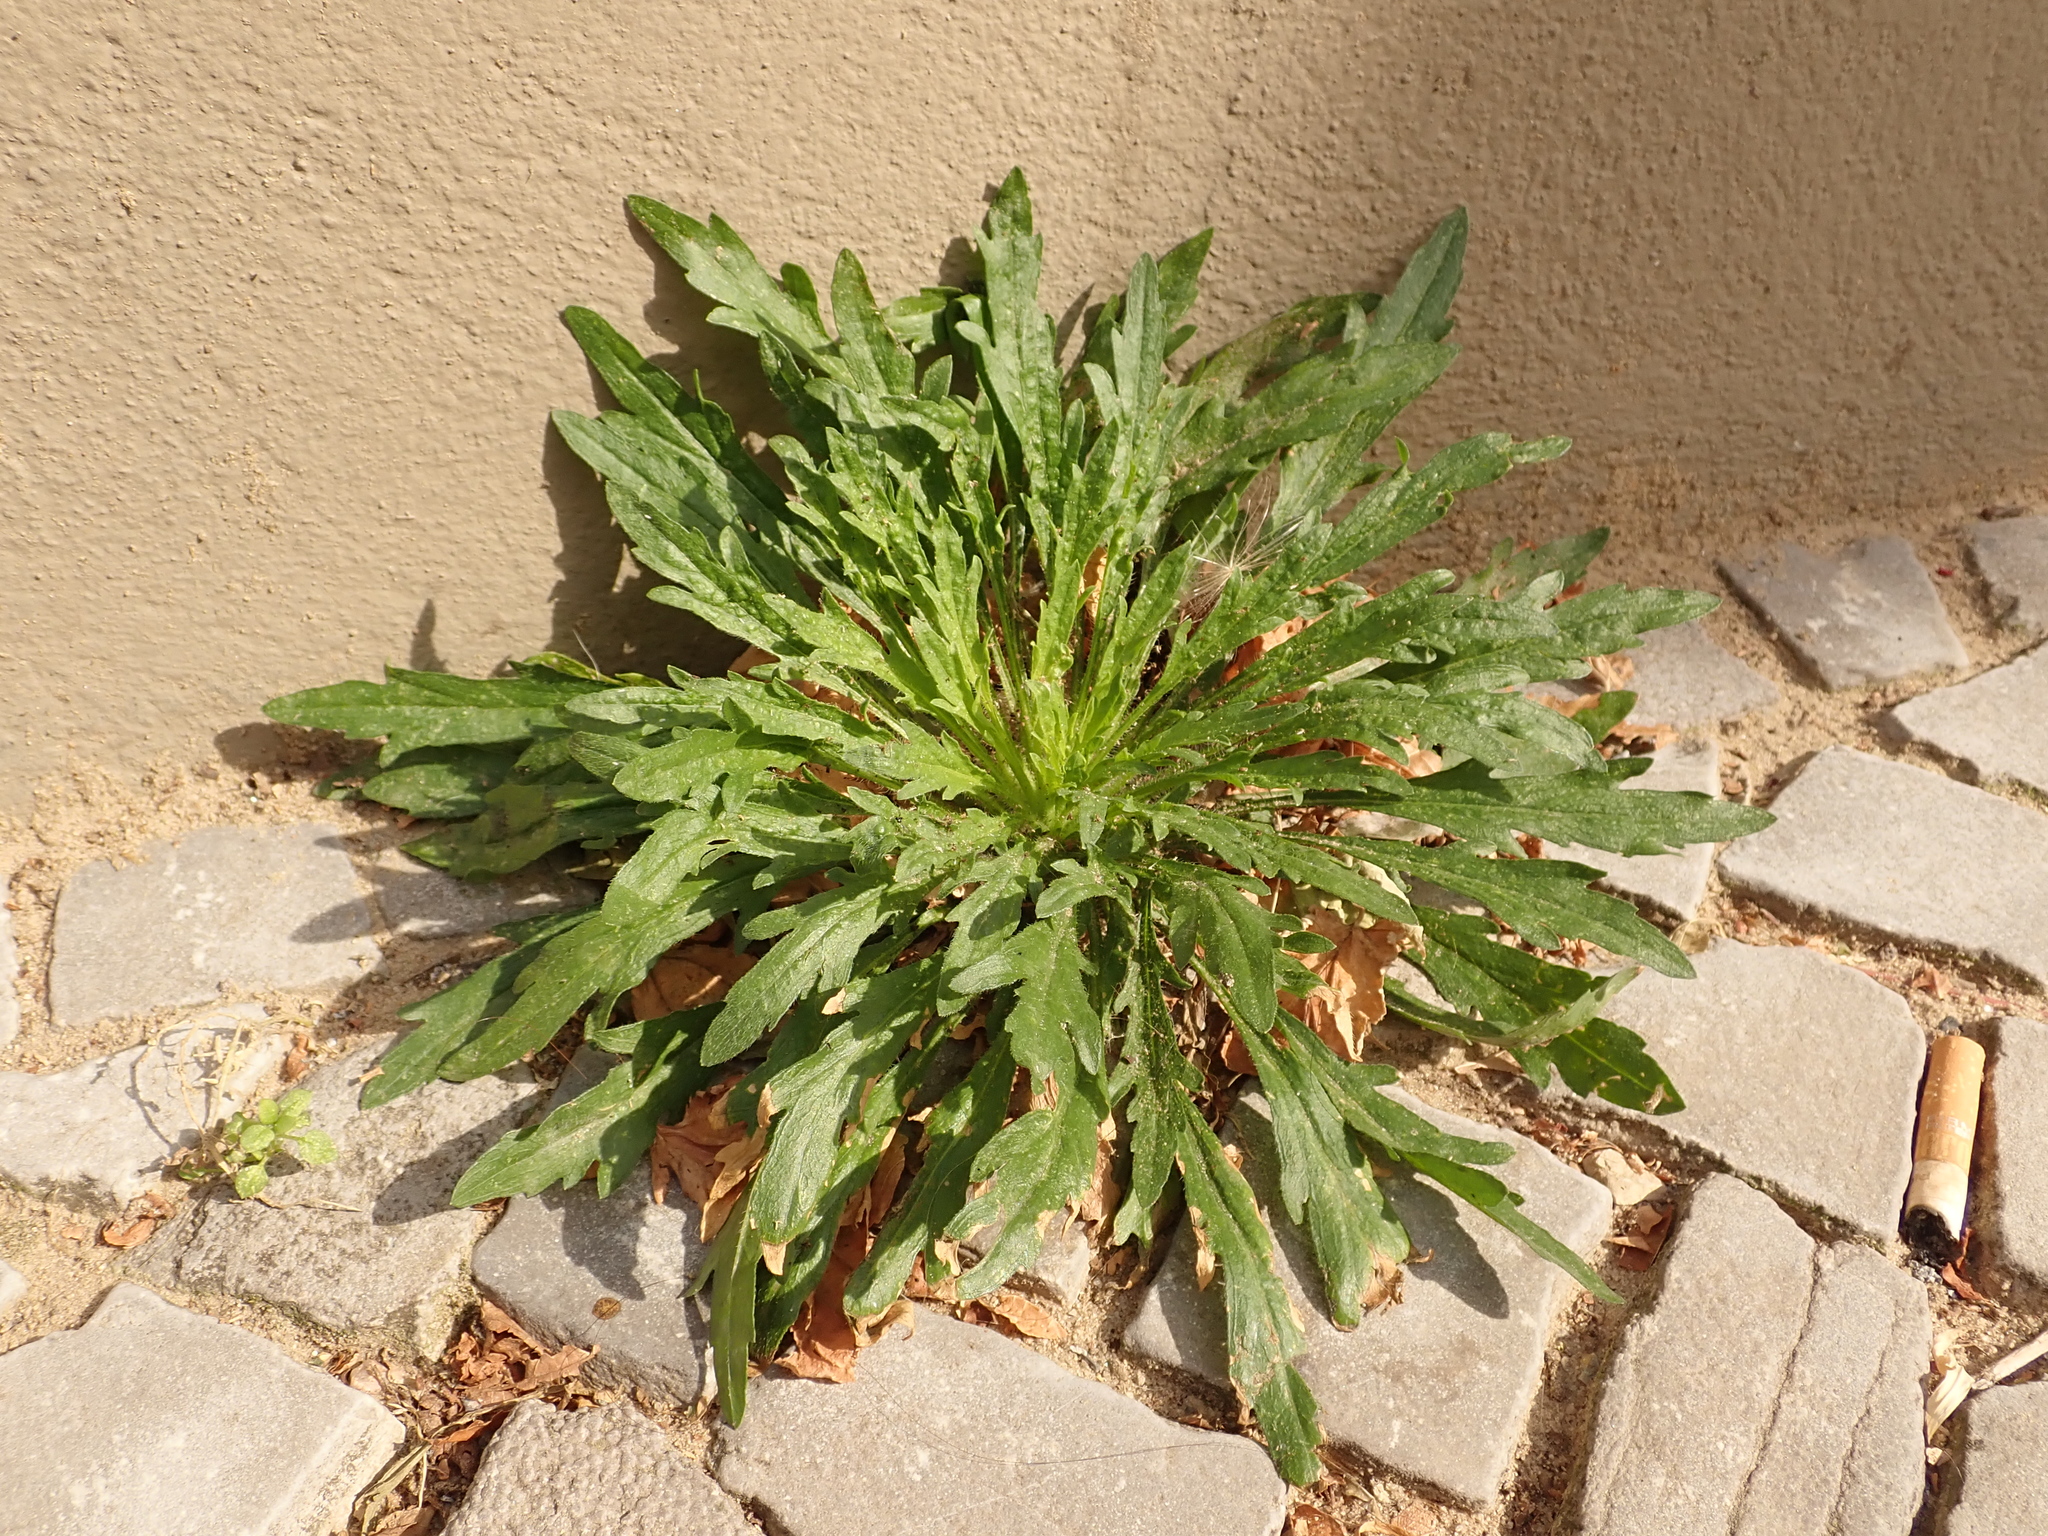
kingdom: Plantae
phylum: Tracheophyta
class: Magnoliopsida
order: Asterales
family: Asteraceae
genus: Erigeron
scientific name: Erigeron canadensis
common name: Canadian fleabane
